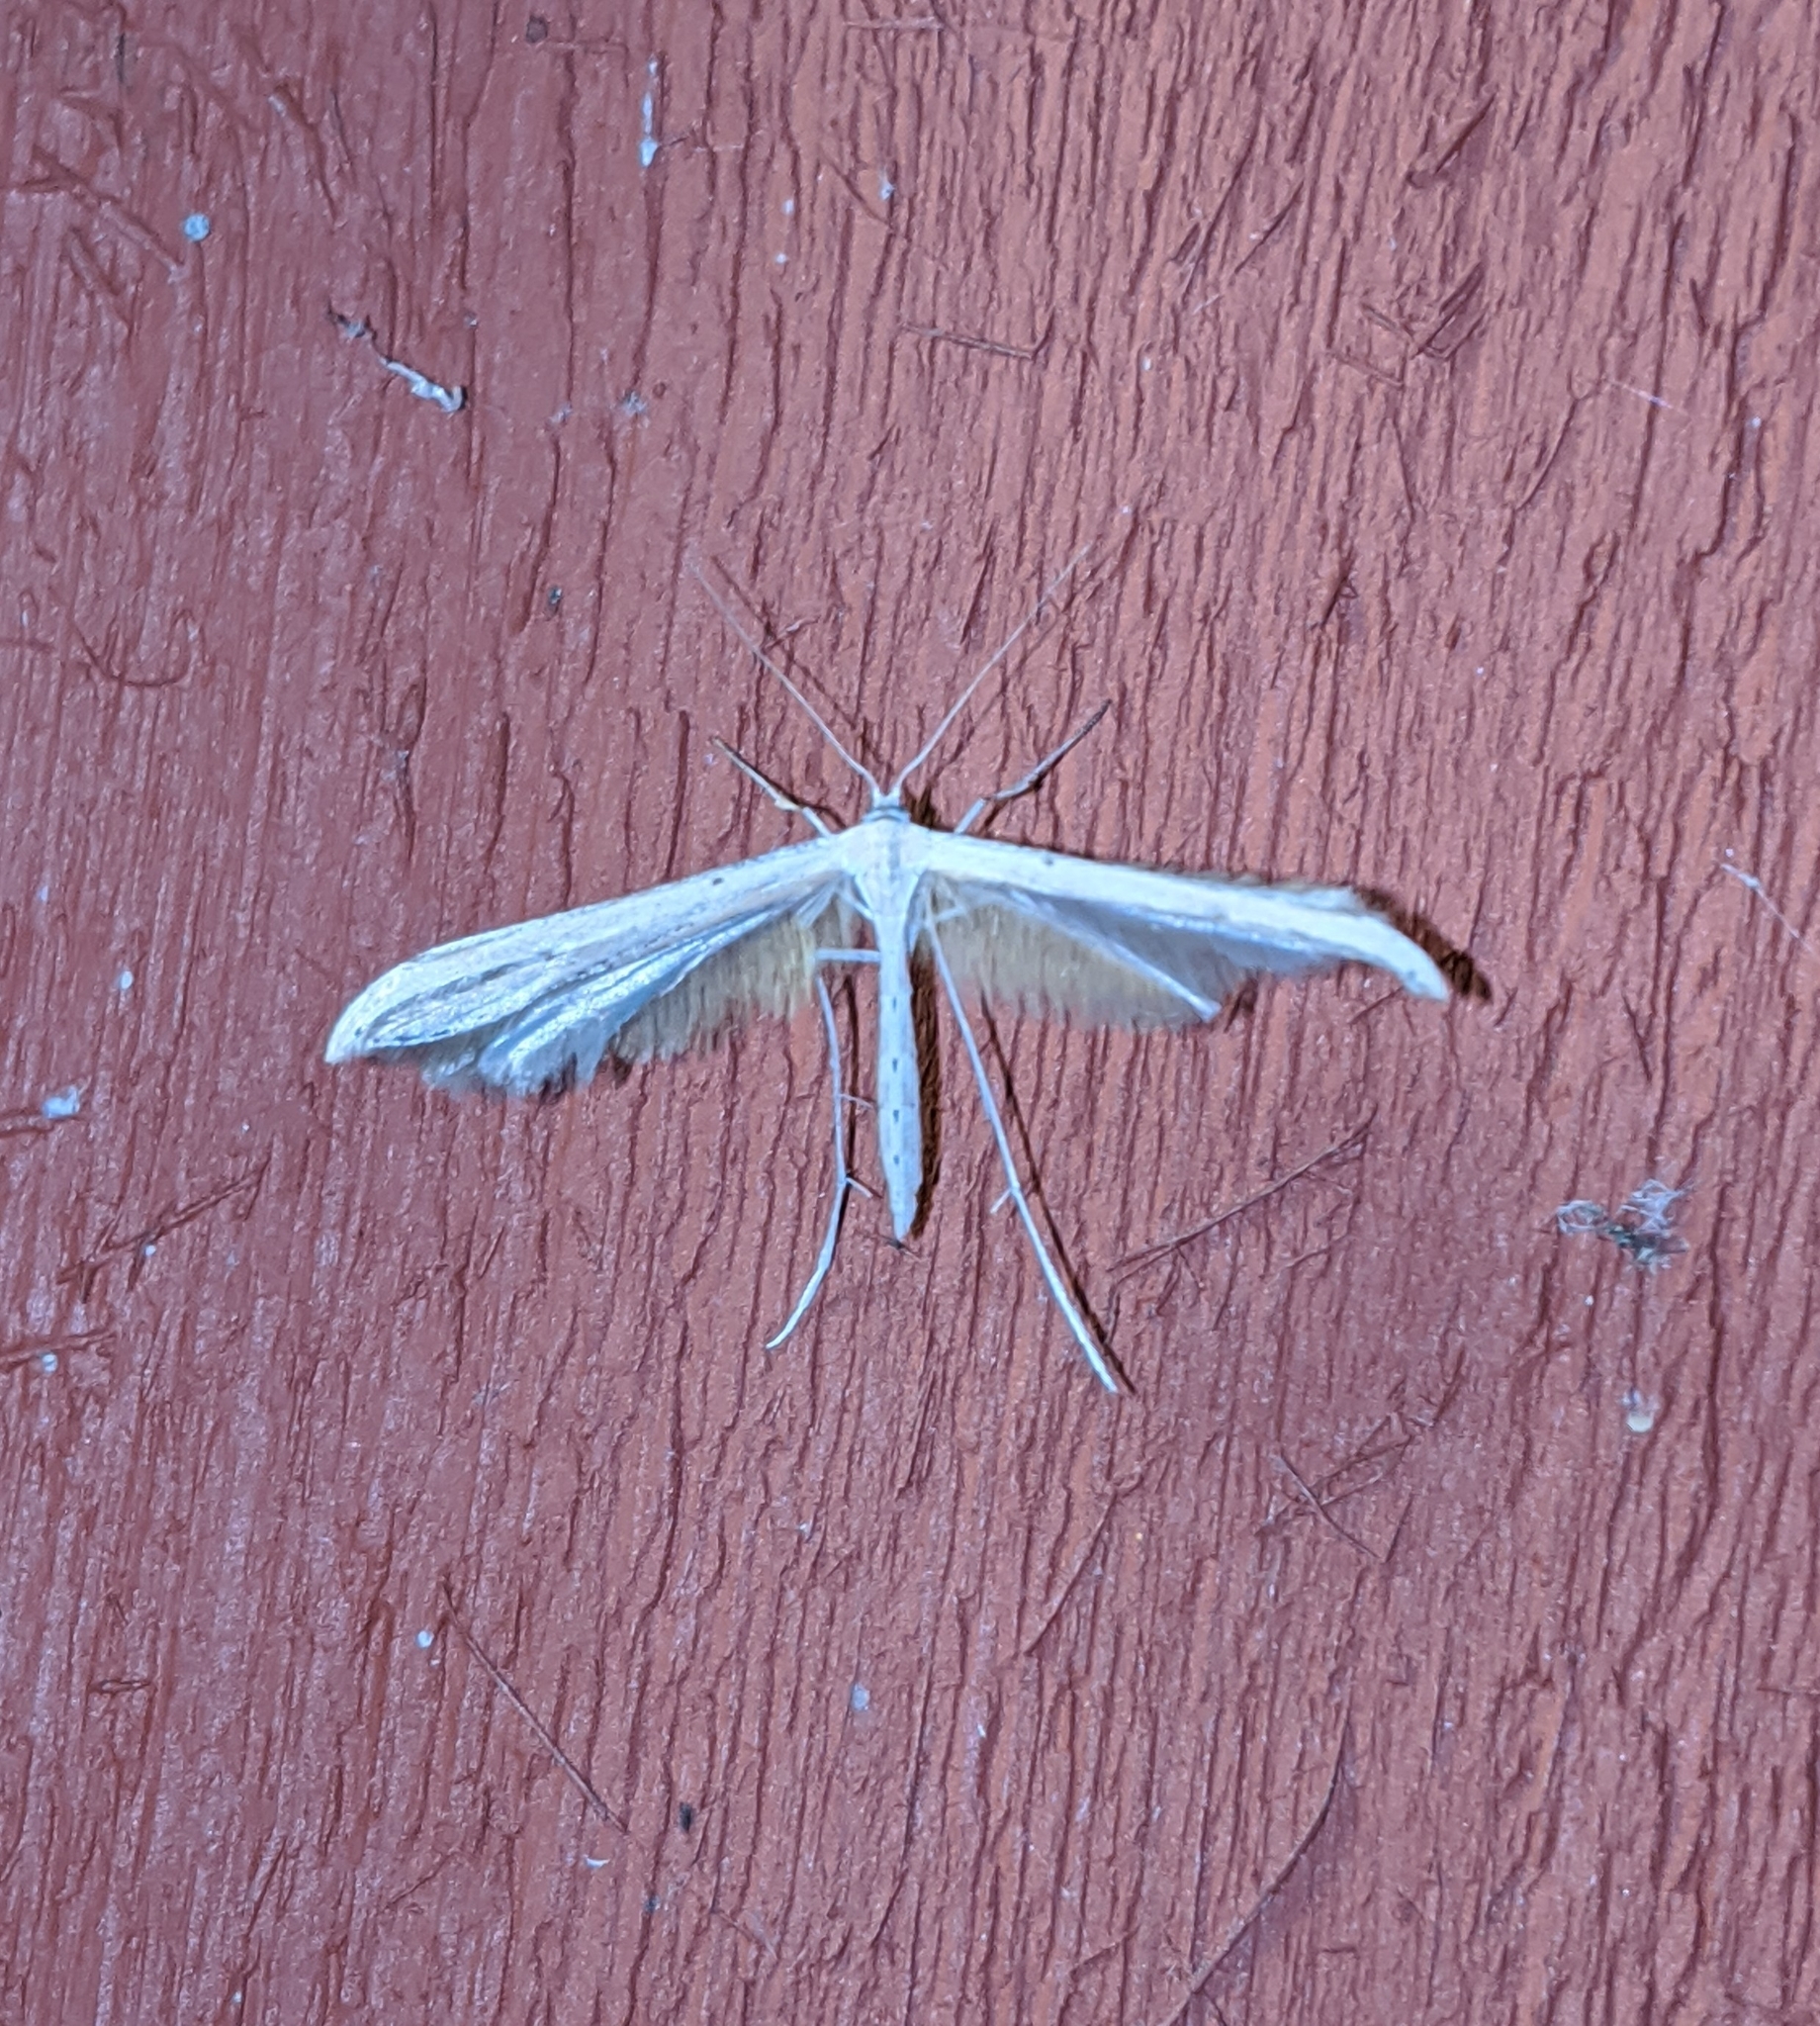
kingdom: Animalia
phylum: Arthropoda
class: Insecta
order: Lepidoptera
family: Pterophoridae
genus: Emmelina
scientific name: Emmelina monodactyla
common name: Common plume
